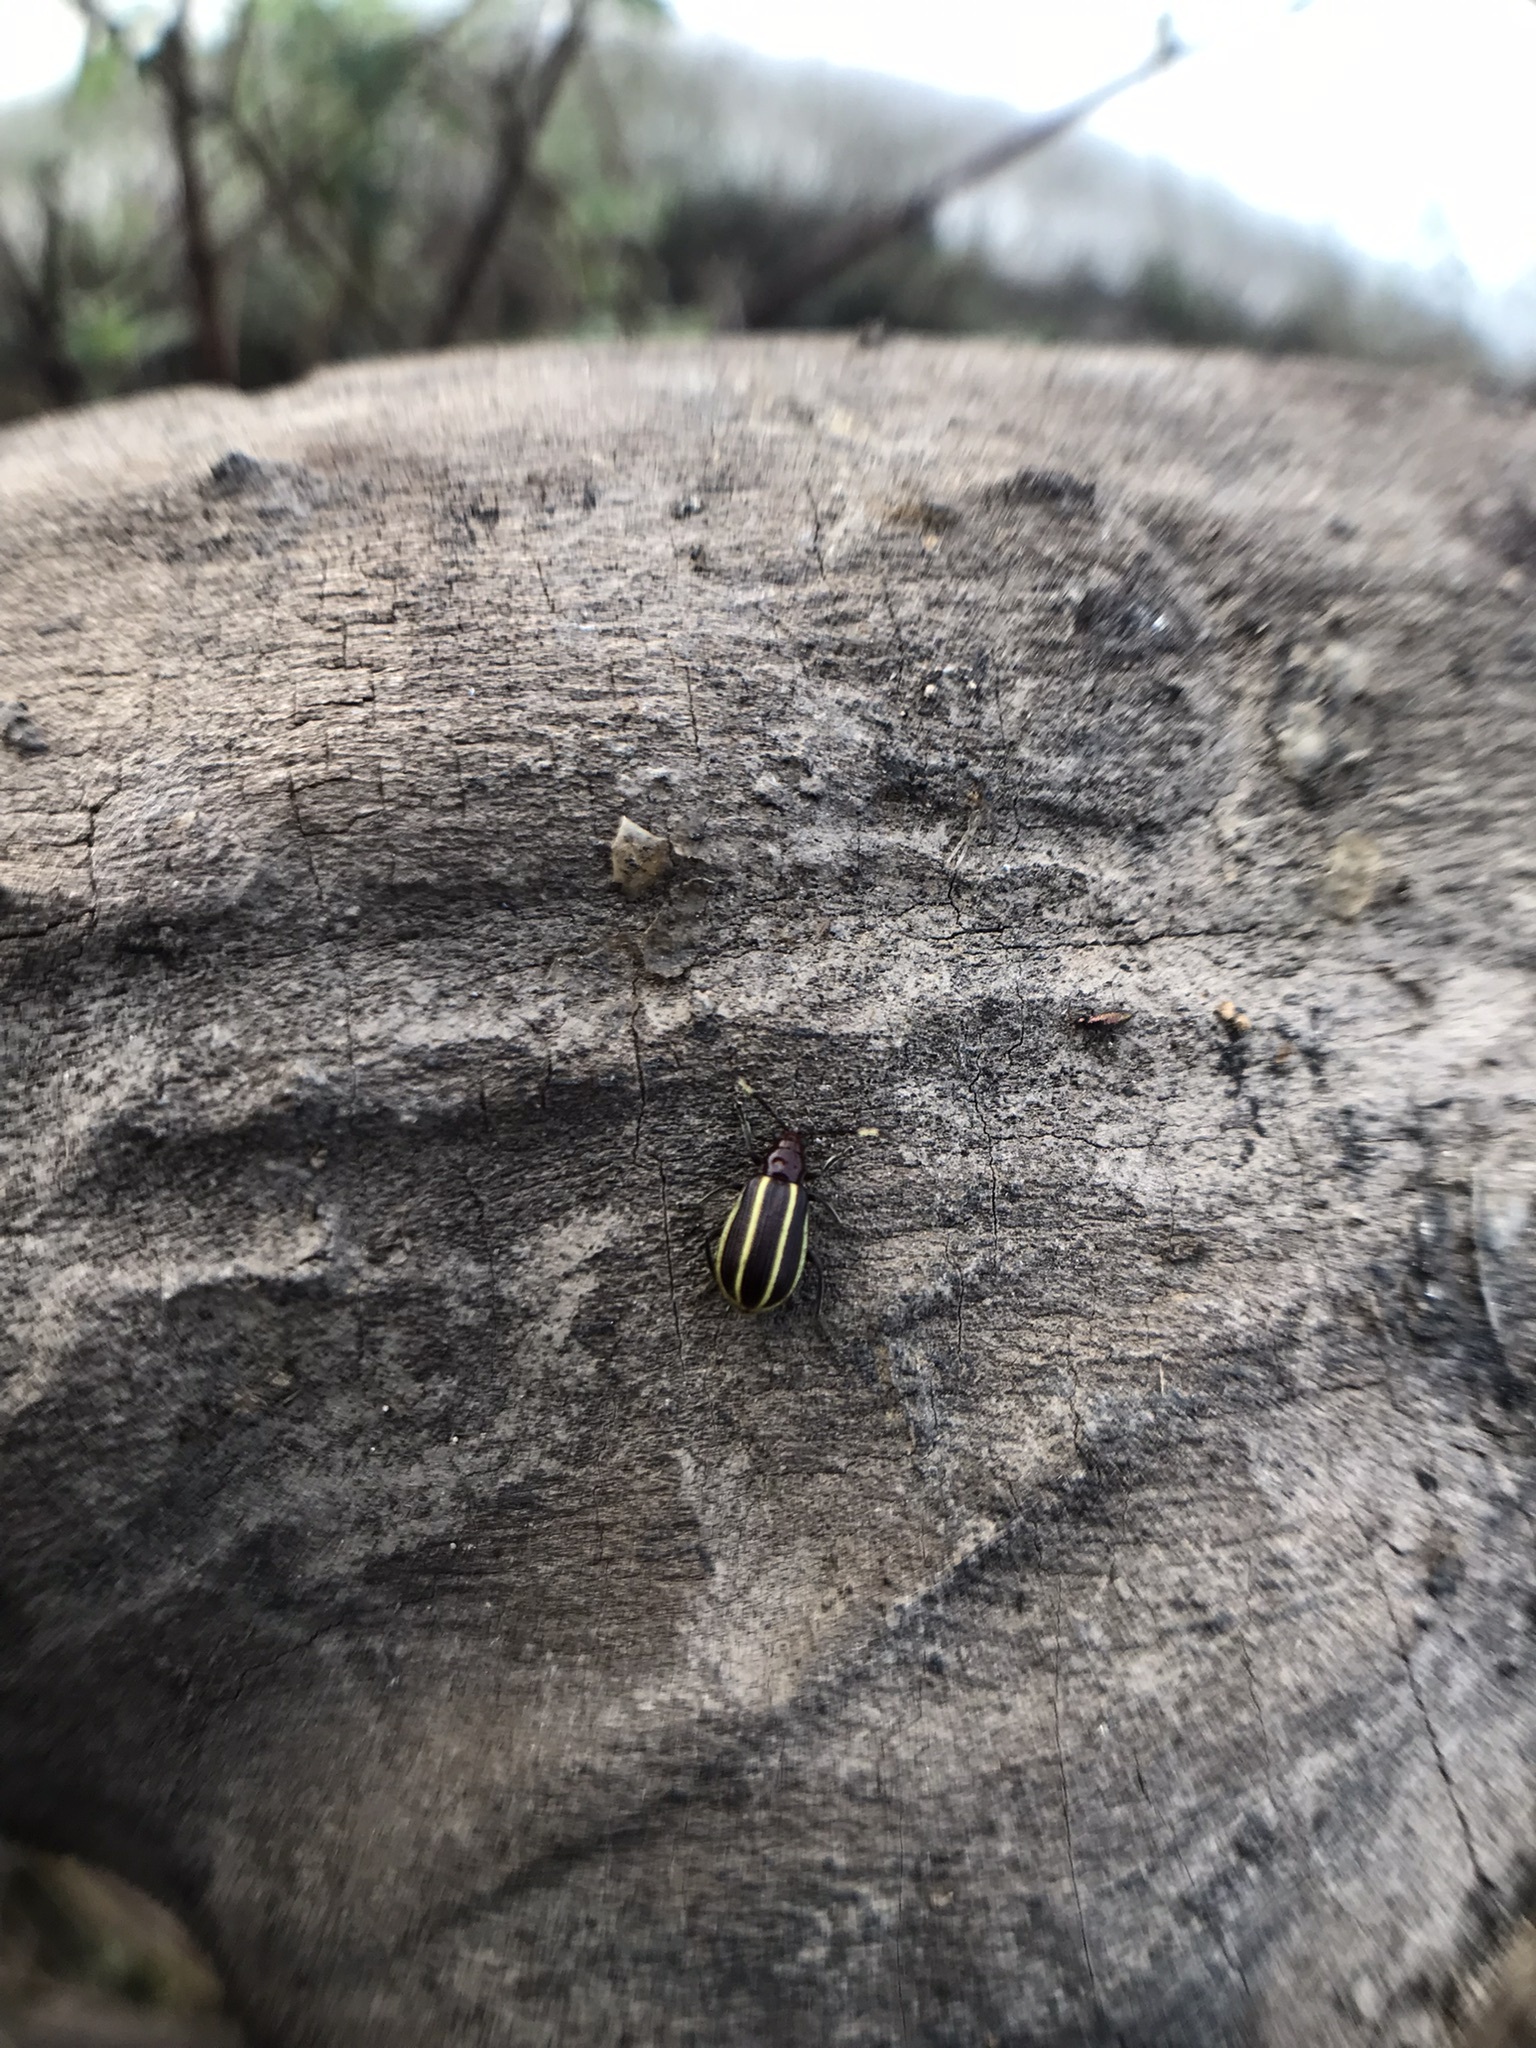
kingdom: Animalia
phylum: Arthropoda
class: Insecta
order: Coleoptera
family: Chrysomelidae
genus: Acalymma
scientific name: Acalymma albidovittatum
